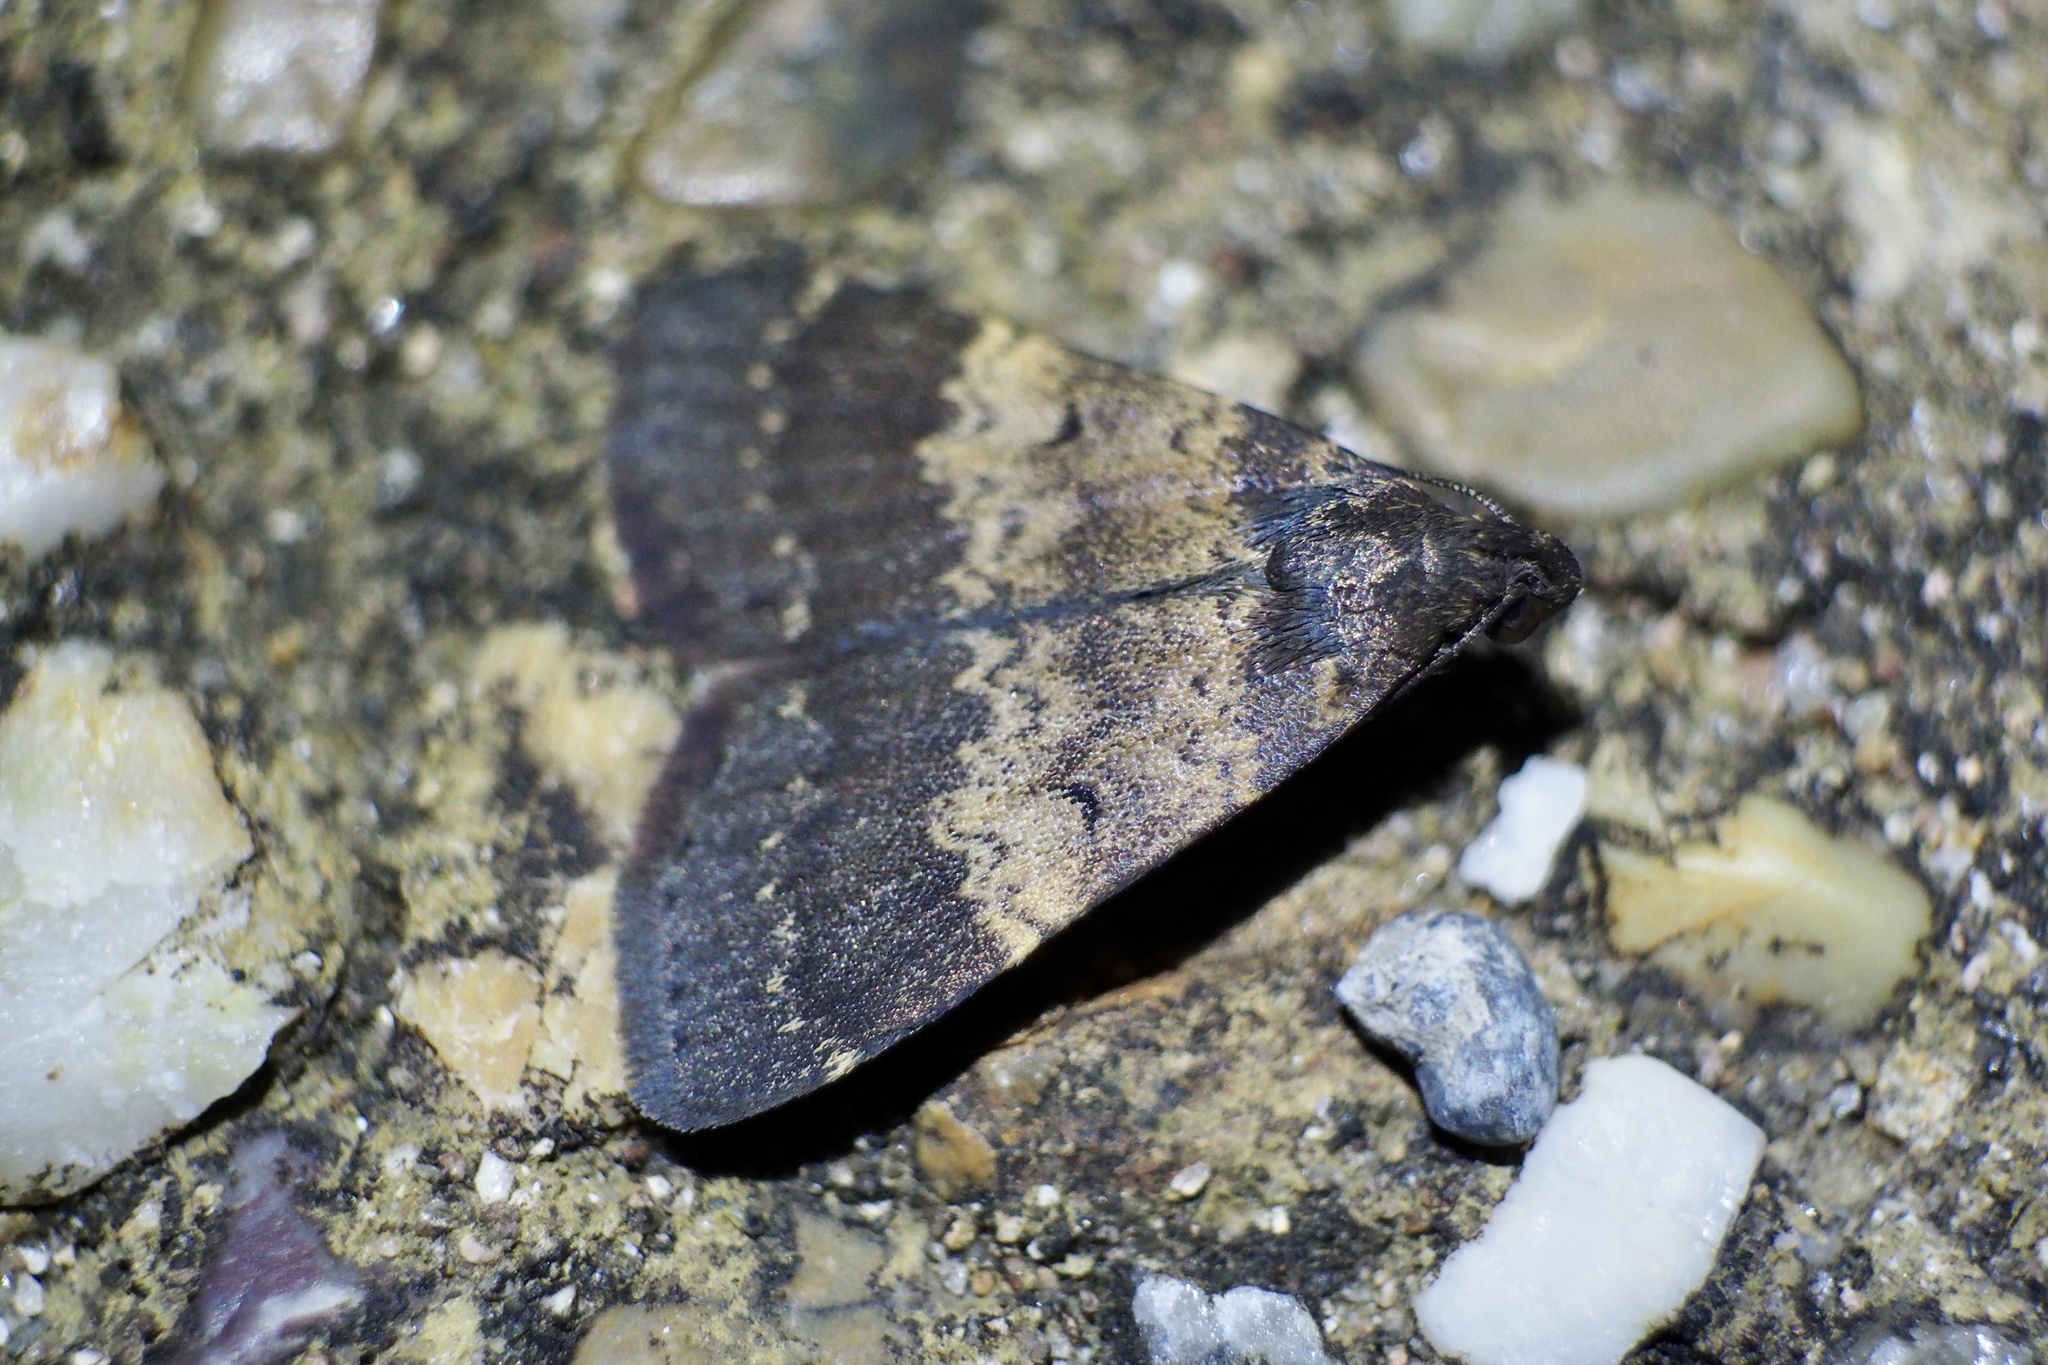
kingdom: Animalia
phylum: Arthropoda
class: Insecta
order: Lepidoptera
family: Erebidae
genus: Hydrillodes
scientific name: Hydrillodes lentalis
